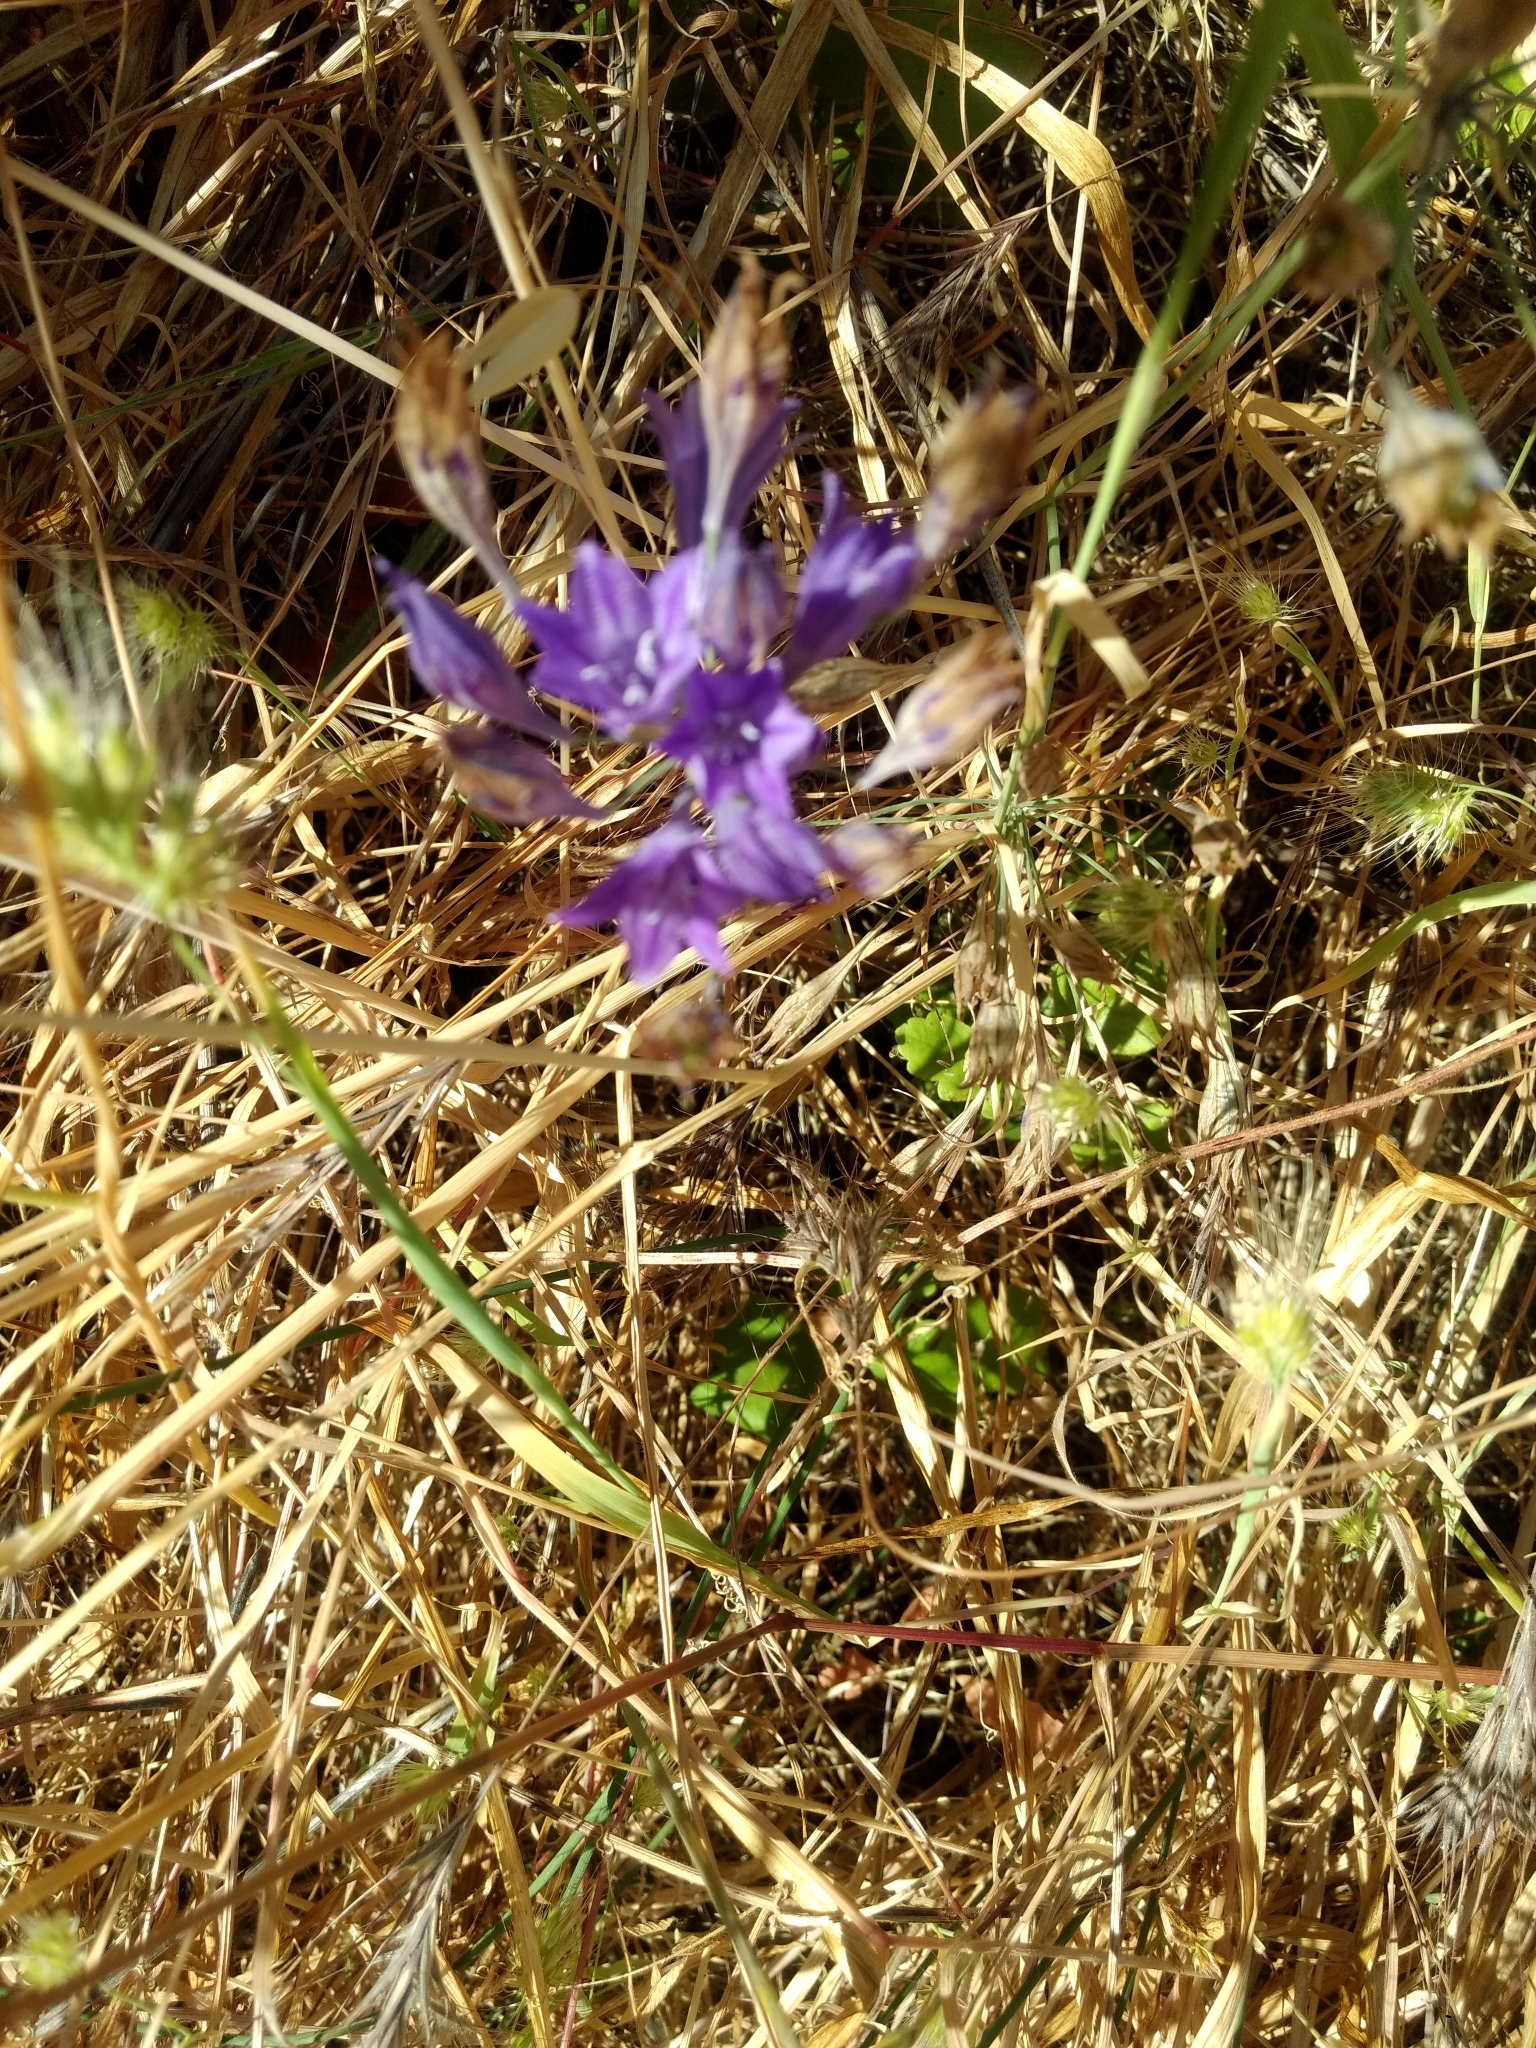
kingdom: Plantae
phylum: Tracheophyta
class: Liliopsida
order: Asparagales
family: Asparagaceae
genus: Triteleia
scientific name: Triteleia laxa
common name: Triplet-lily
